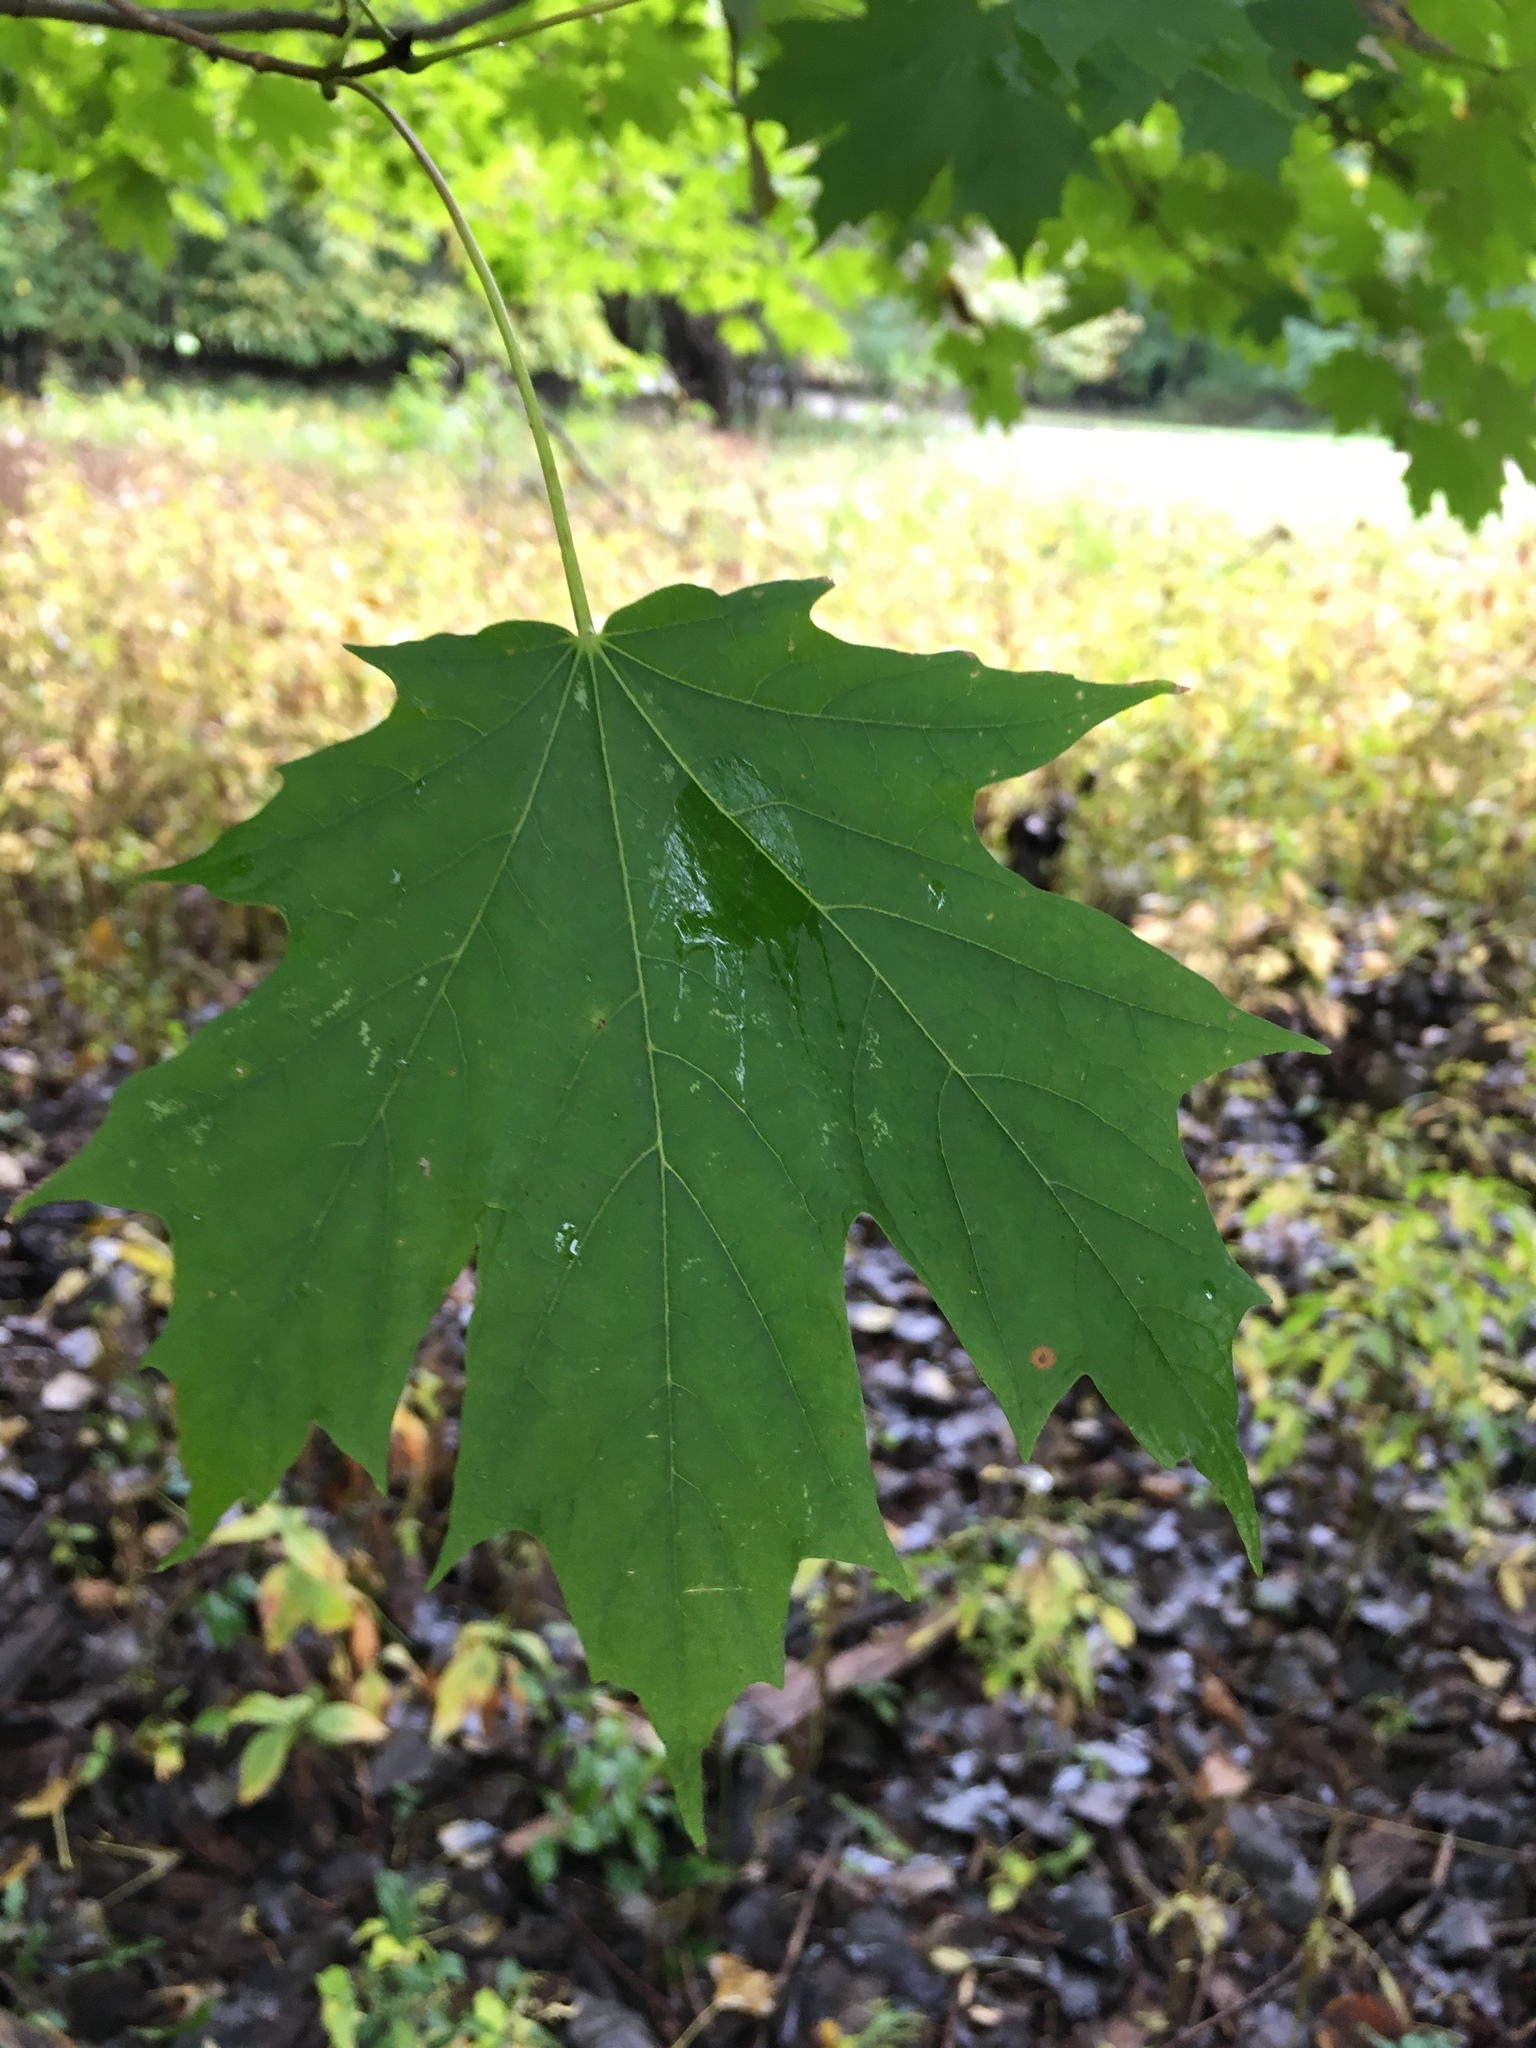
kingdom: Plantae
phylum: Tracheophyta
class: Magnoliopsida
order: Sapindales
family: Sapindaceae
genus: Acer
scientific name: Acer saccharum
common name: Sugar maple
